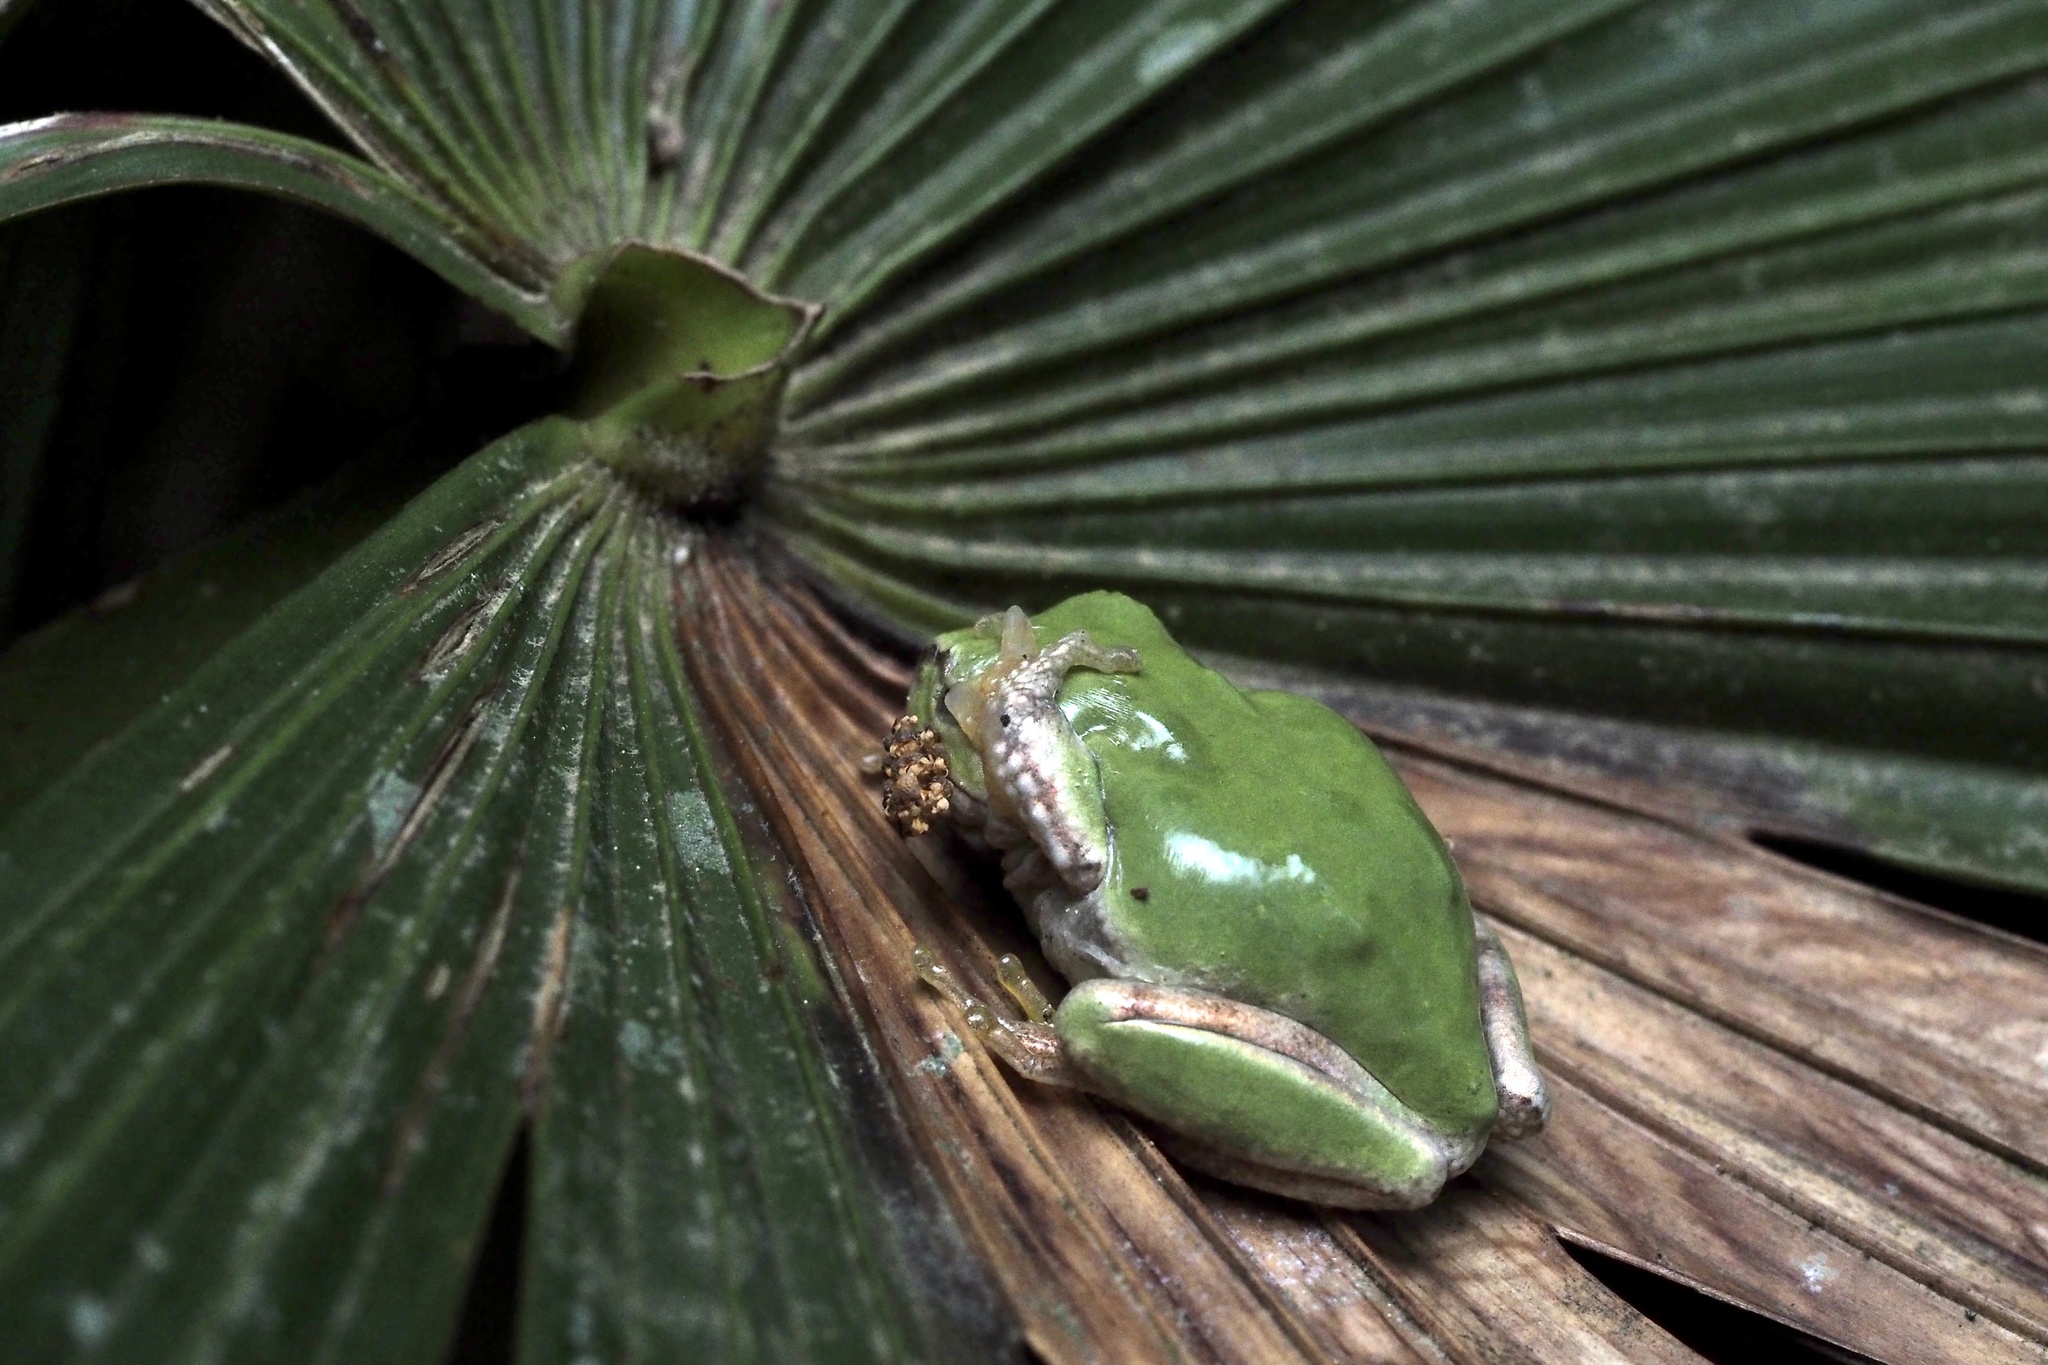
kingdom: Animalia
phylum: Chordata
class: Amphibia
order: Anura
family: Hylidae
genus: Dryophytes
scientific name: Dryophytes japonicus
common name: Japanese treefrog
